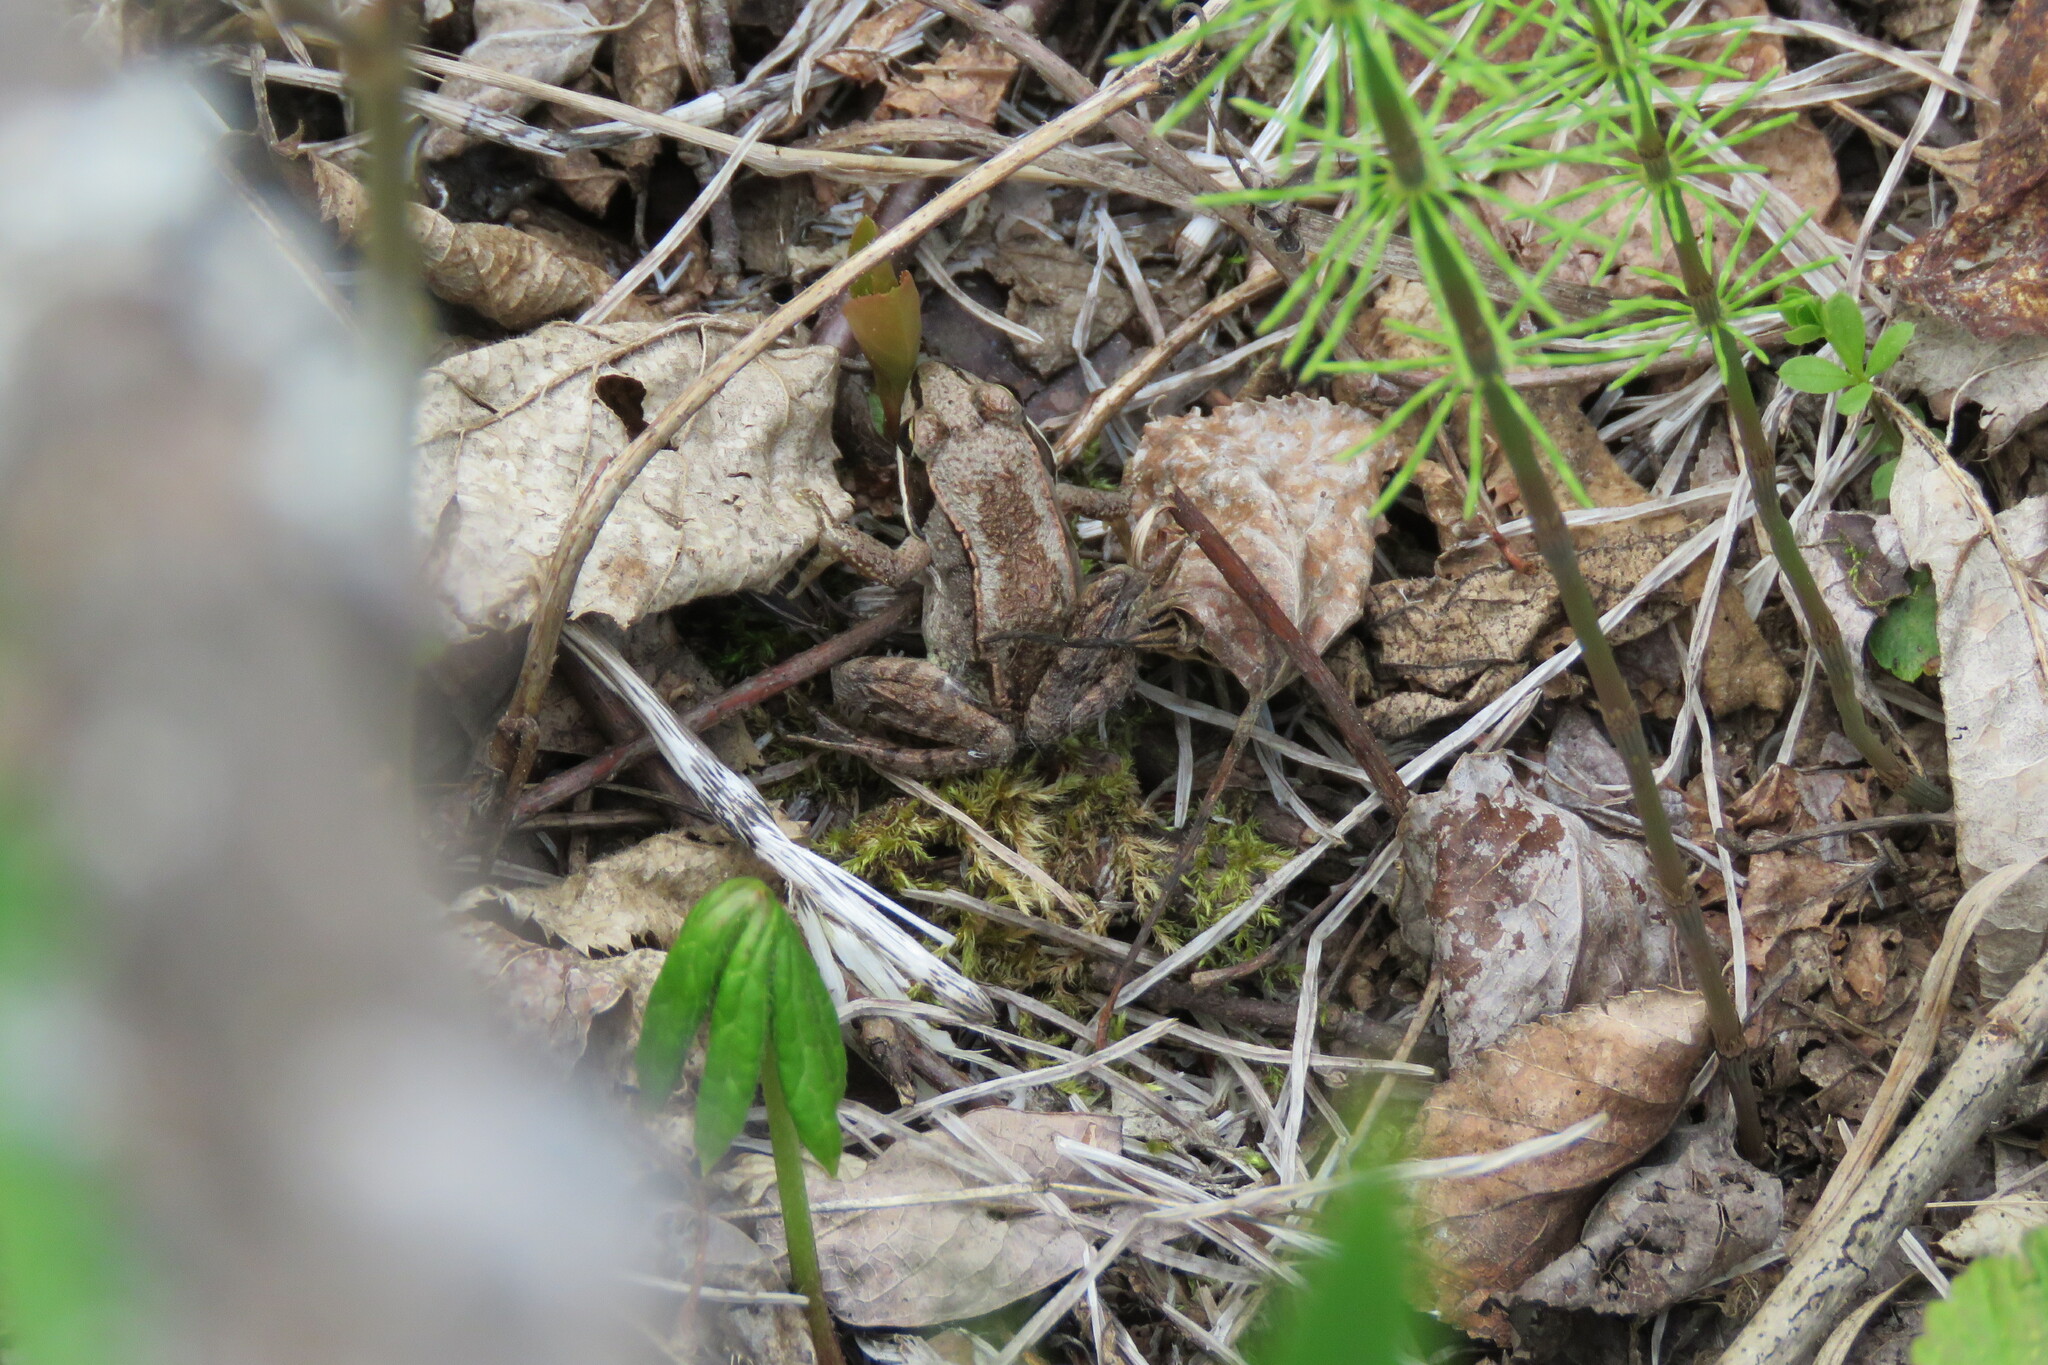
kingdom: Animalia
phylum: Chordata
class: Amphibia
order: Anura
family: Ranidae
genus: Lithobates
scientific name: Lithobates sylvaticus
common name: Wood frog
